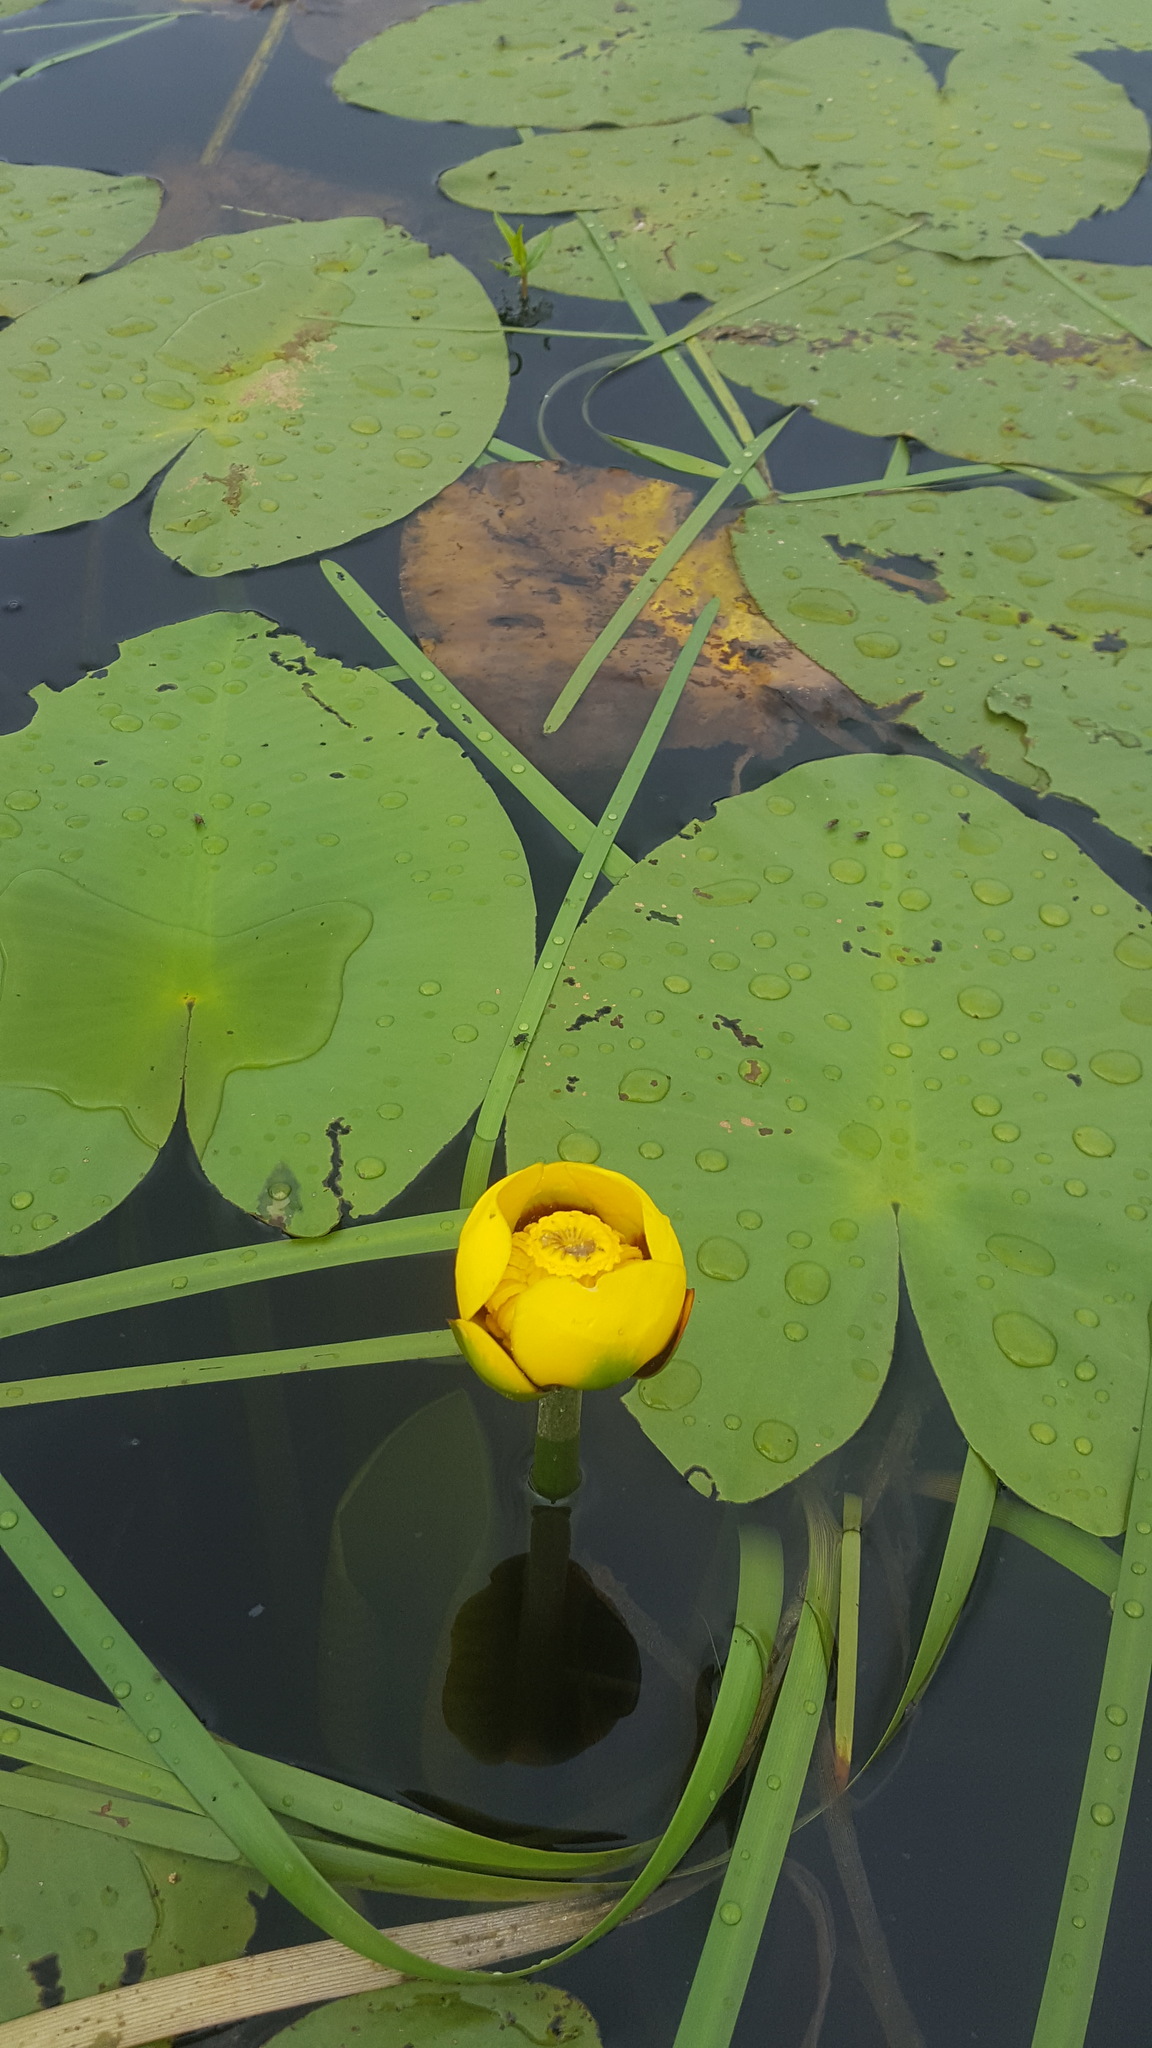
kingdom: Plantae
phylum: Tracheophyta
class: Magnoliopsida
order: Nymphaeales
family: Nymphaeaceae
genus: Nuphar
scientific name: Nuphar variegata
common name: Beaver-root
